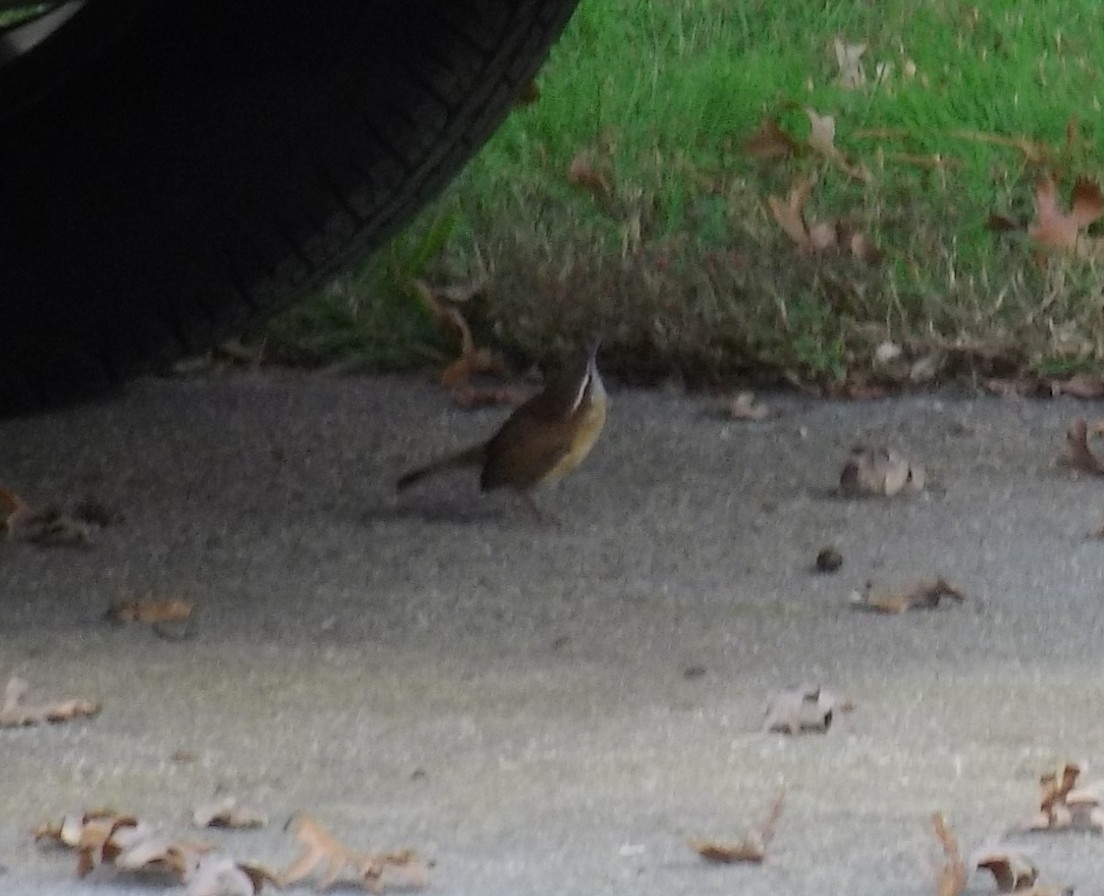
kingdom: Animalia
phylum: Chordata
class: Aves
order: Passeriformes
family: Troglodytidae
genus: Thryothorus
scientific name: Thryothorus ludovicianus
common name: Carolina wren
